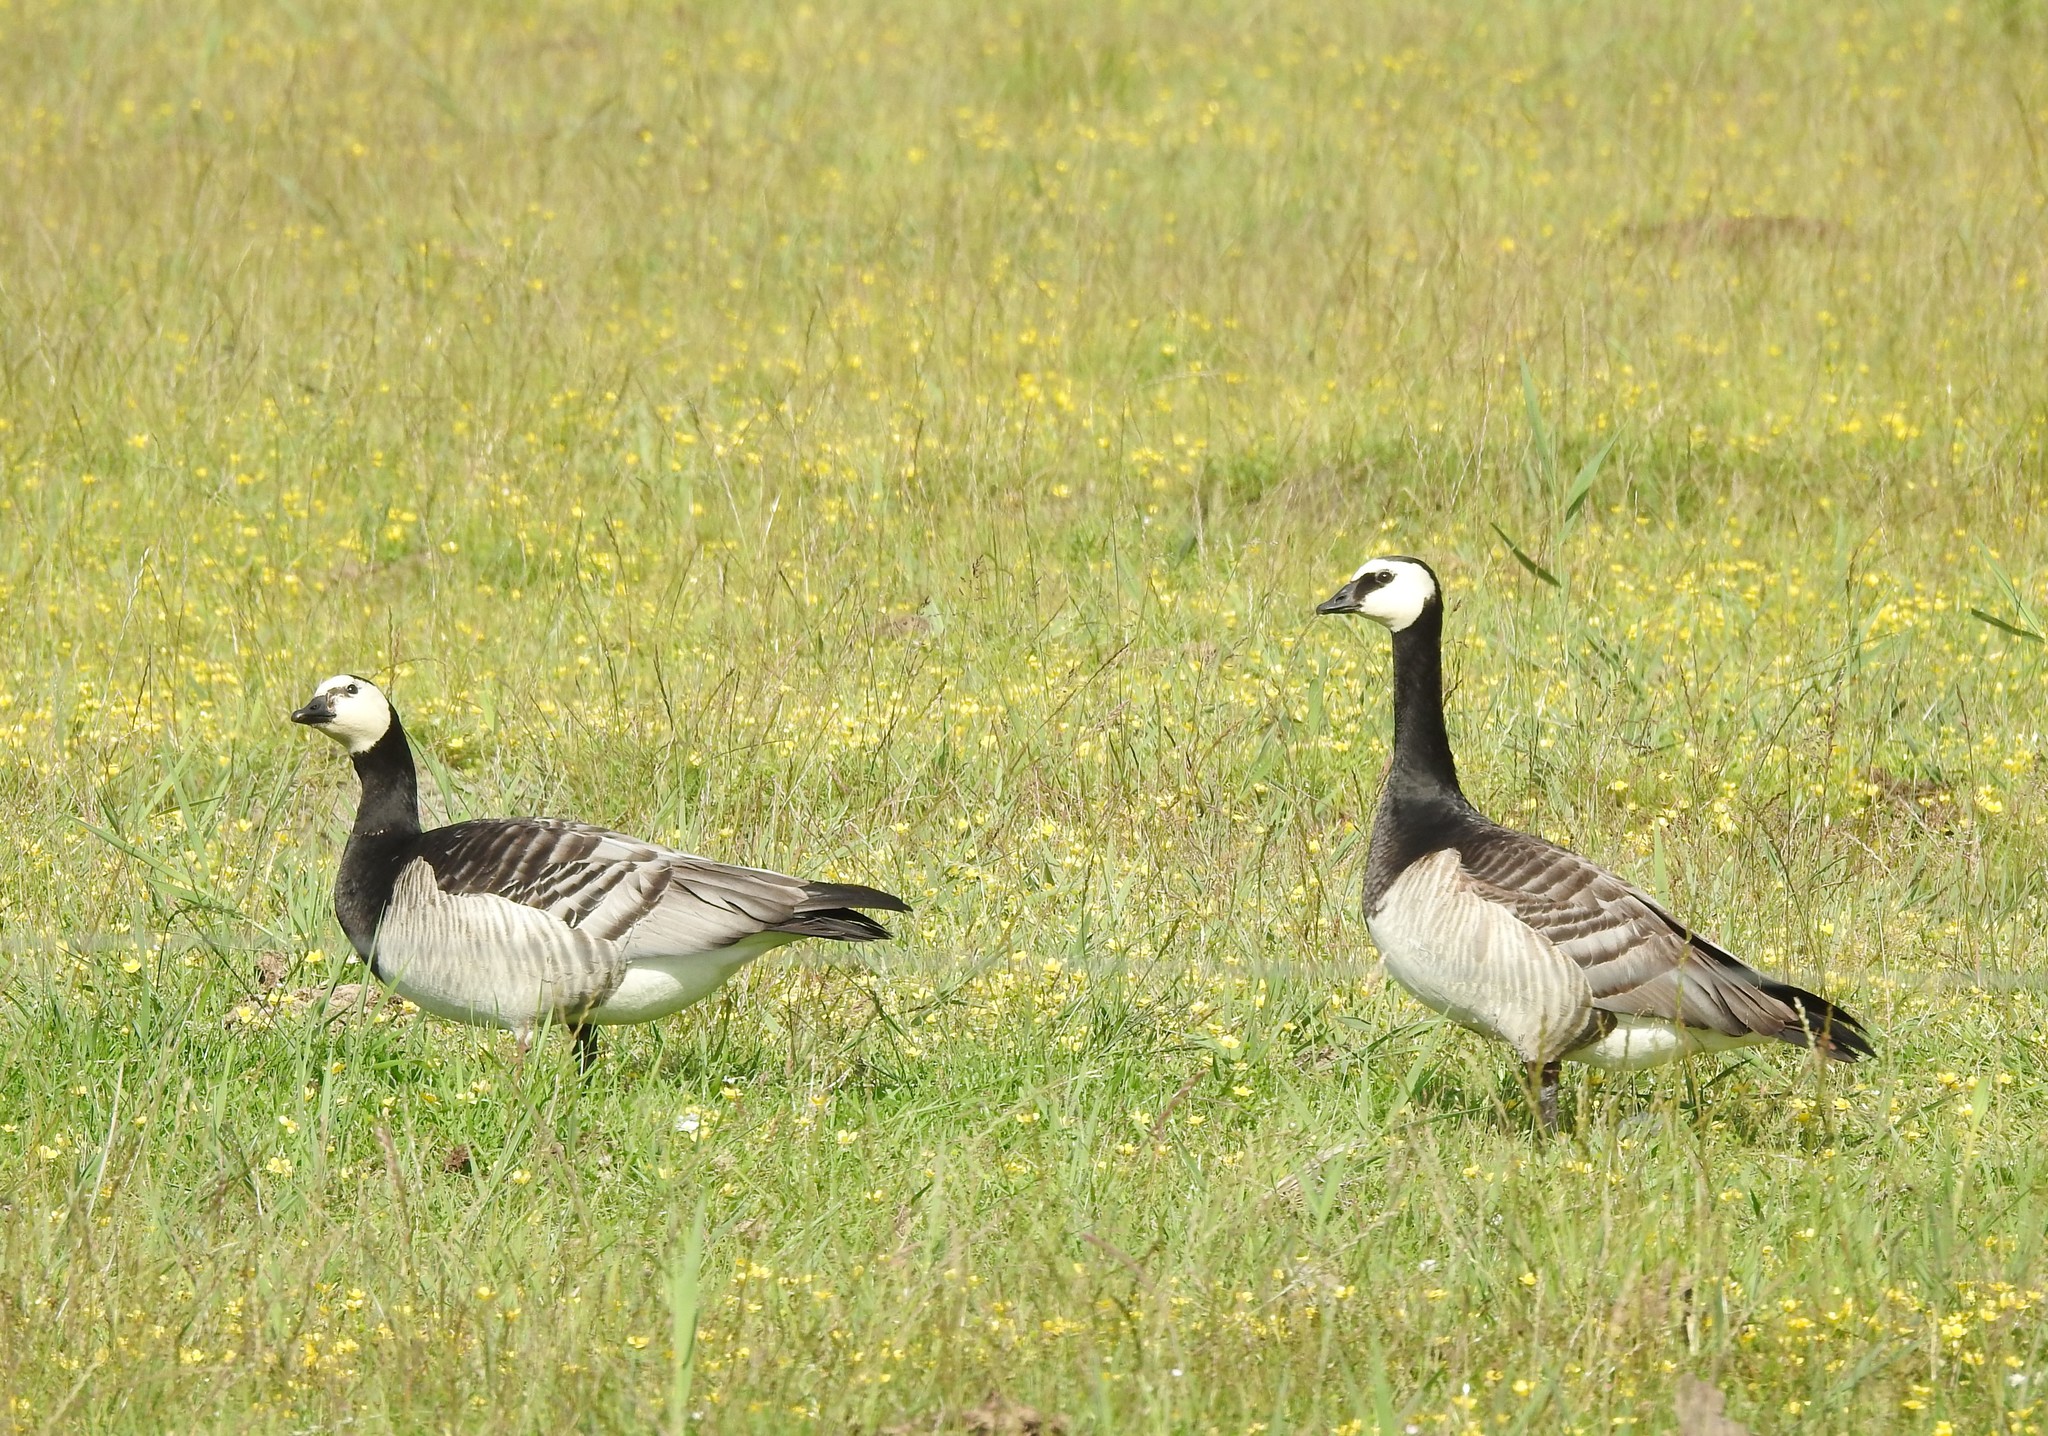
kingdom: Animalia
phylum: Chordata
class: Aves
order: Anseriformes
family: Anatidae
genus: Branta
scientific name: Branta leucopsis
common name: Barnacle goose
